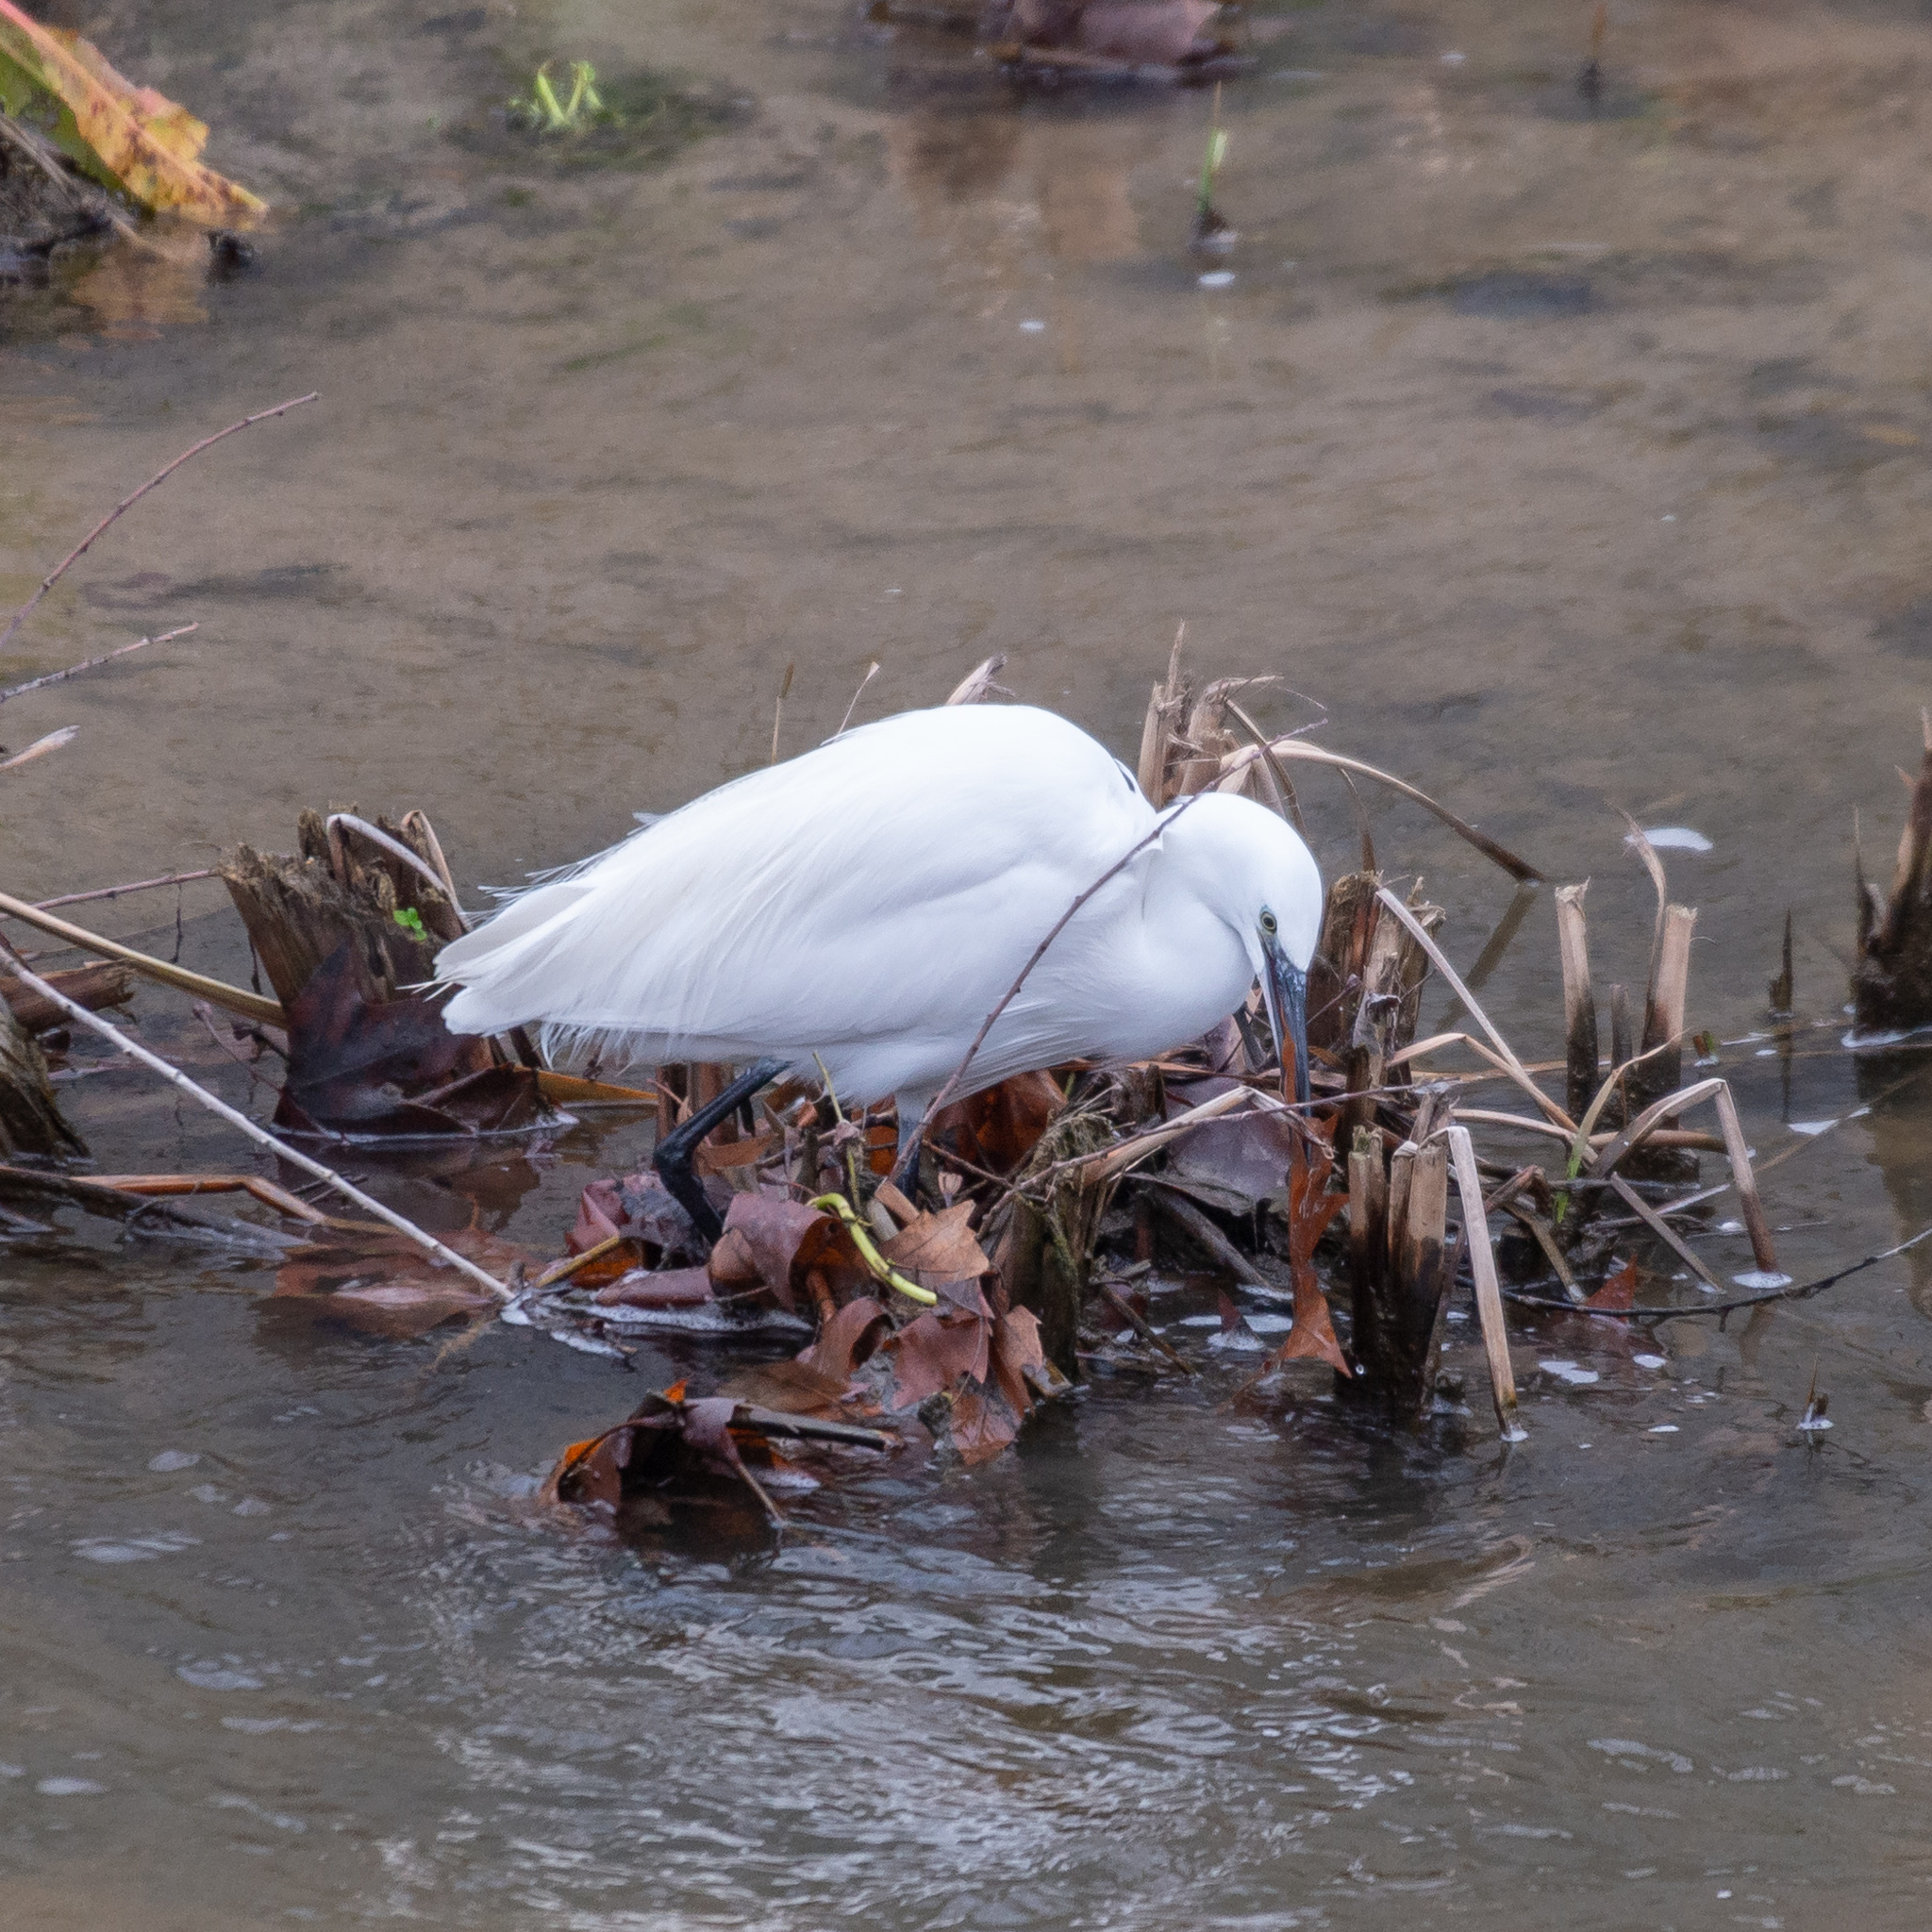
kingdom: Animalia
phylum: Chordata
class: Aves
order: Pelecaniformes
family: Ardeidae
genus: Egretta
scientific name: Egretta garzetta
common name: Little egret
